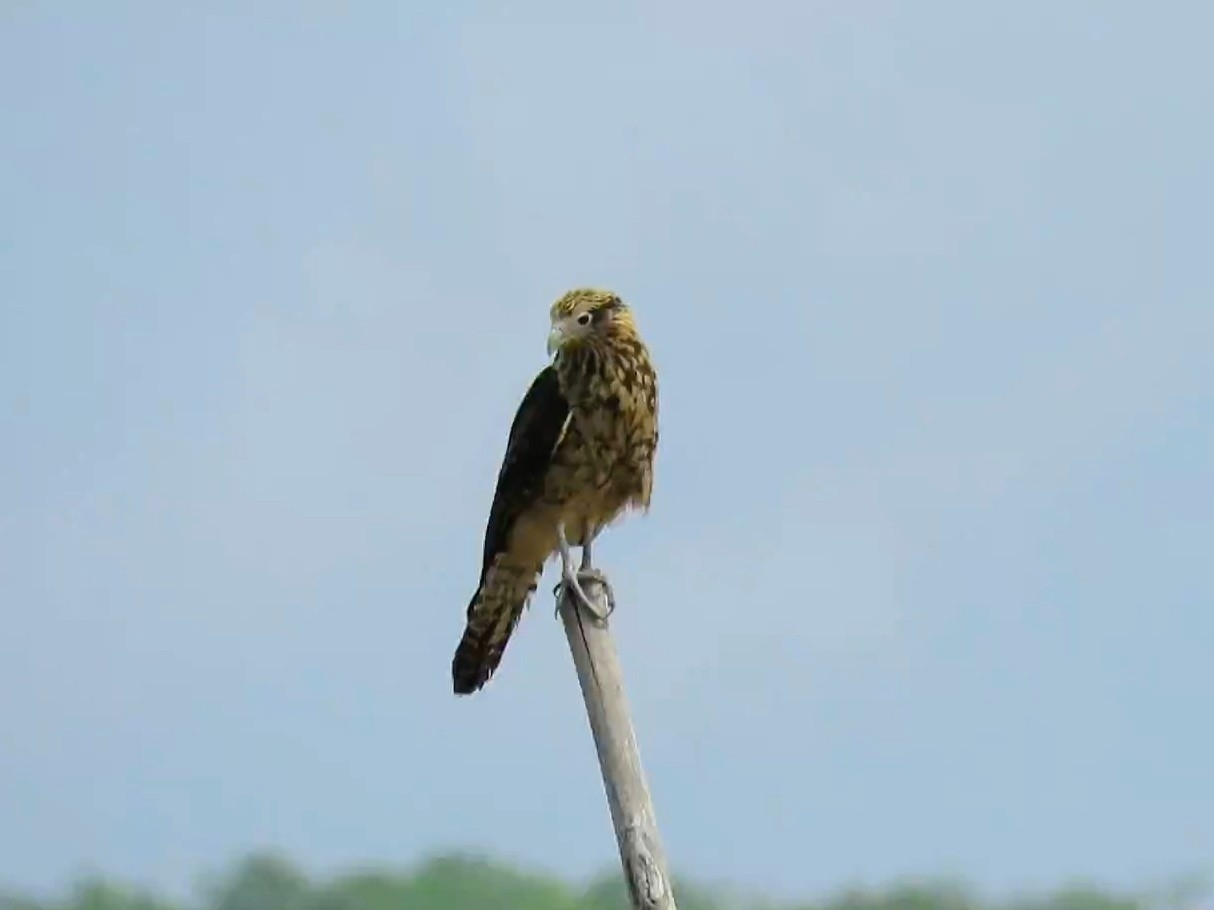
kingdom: Animalia
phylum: Chordata
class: Aves
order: Falconiformes
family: Falconidae
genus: Daptrius
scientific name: Daptrius
